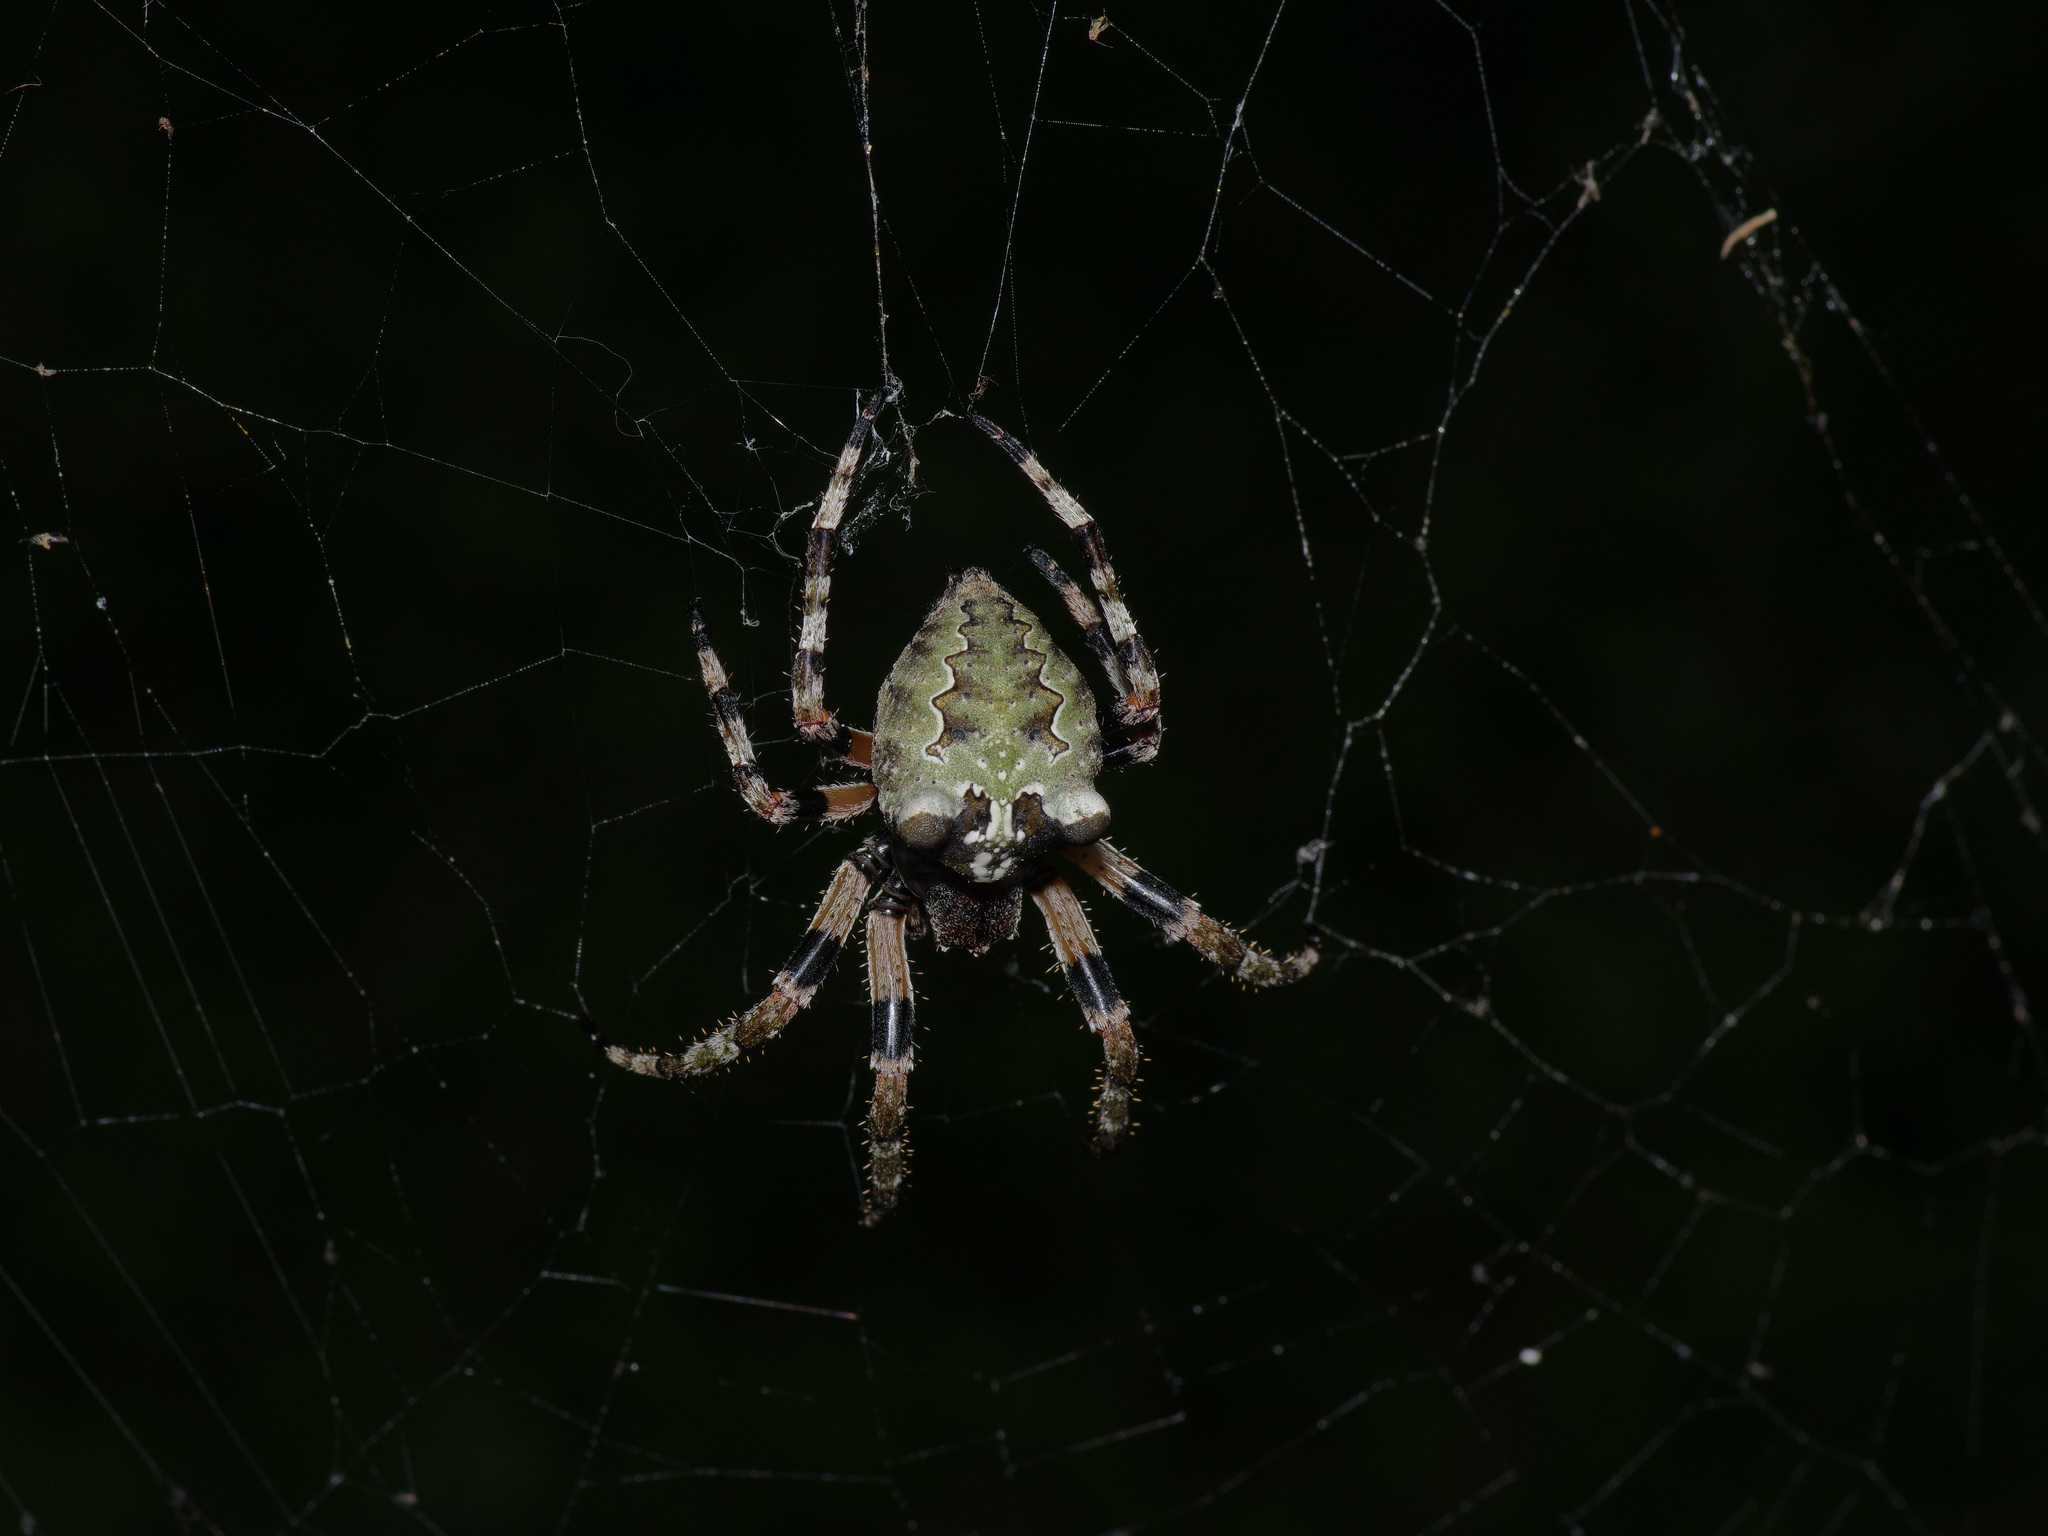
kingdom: Animalia
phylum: Arthropoda
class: Arachnida
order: Araneae
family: Araneidae
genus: Araneus
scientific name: Araneus bicentenarius
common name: Giant lichen orbweaver
